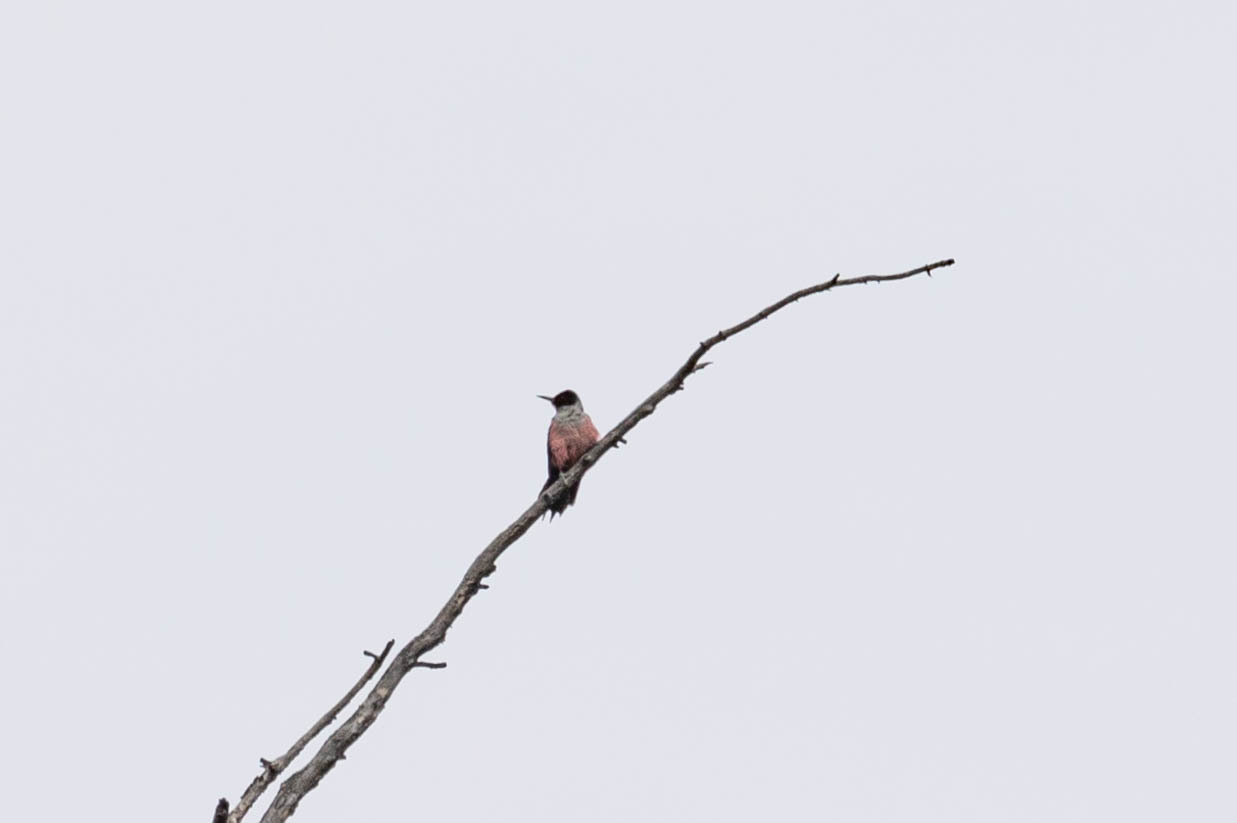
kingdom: Animalia
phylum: Chordata
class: Aves
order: Piciformes
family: Picidae
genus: Melanerpes
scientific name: Melanerpes lewis
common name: Lewis's woodpecker
